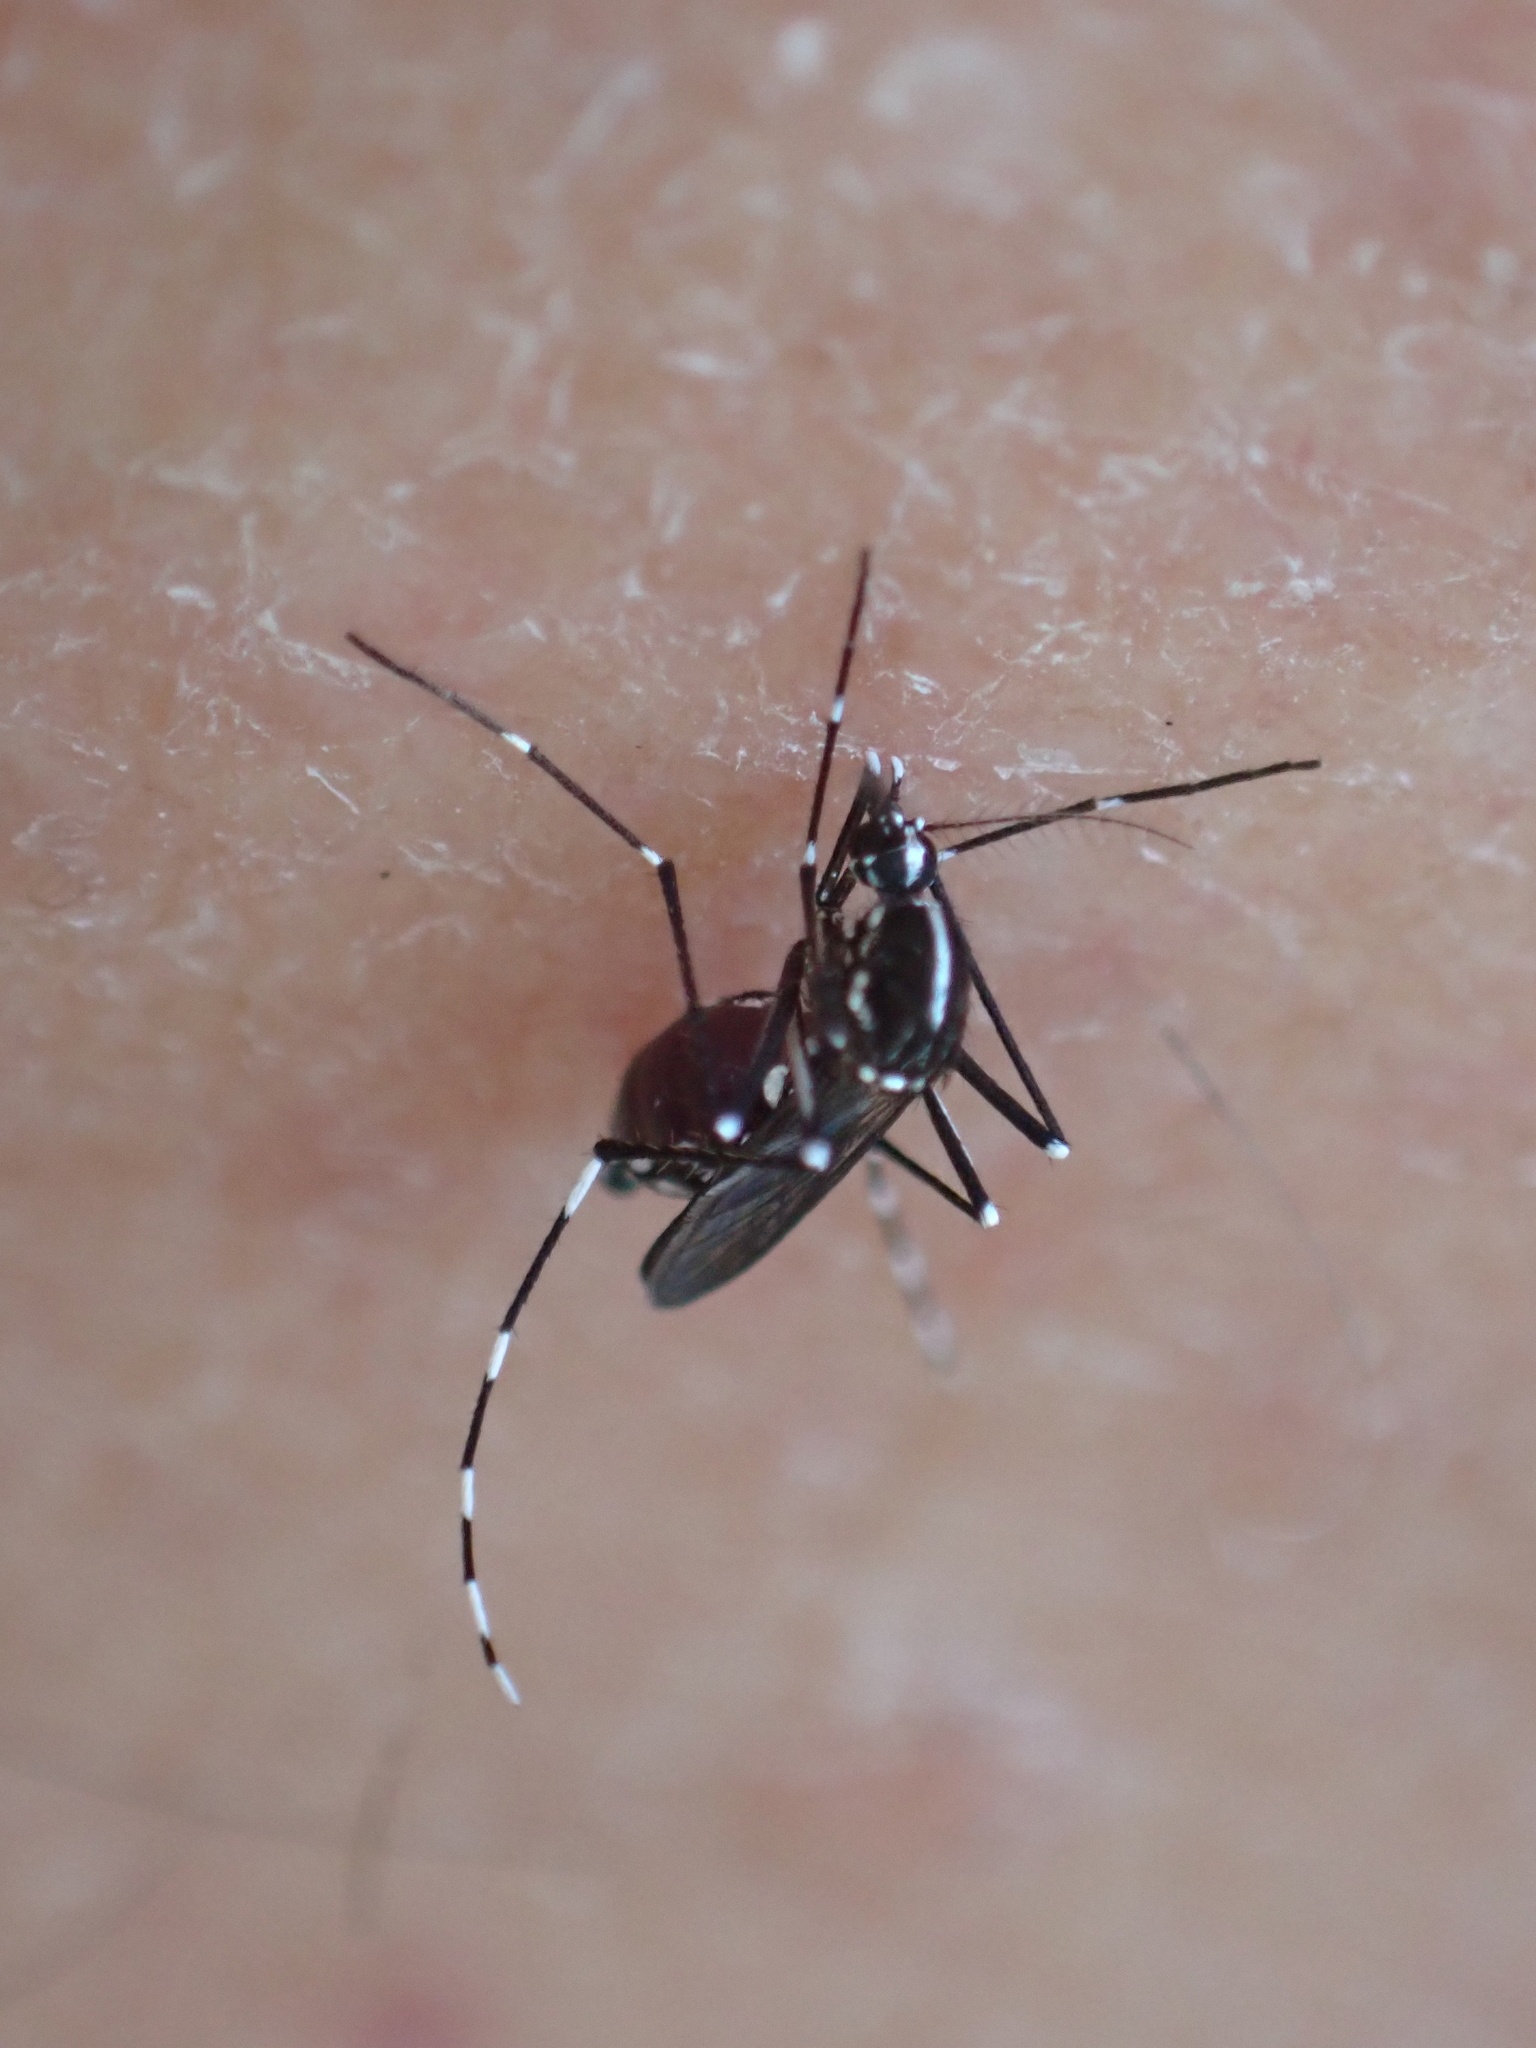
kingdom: Animalia
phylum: Arthropoda
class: Insecta
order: Diptera
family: Culicidae
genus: Aedes
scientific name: Aedes albopictus
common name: Tiger mosquito
